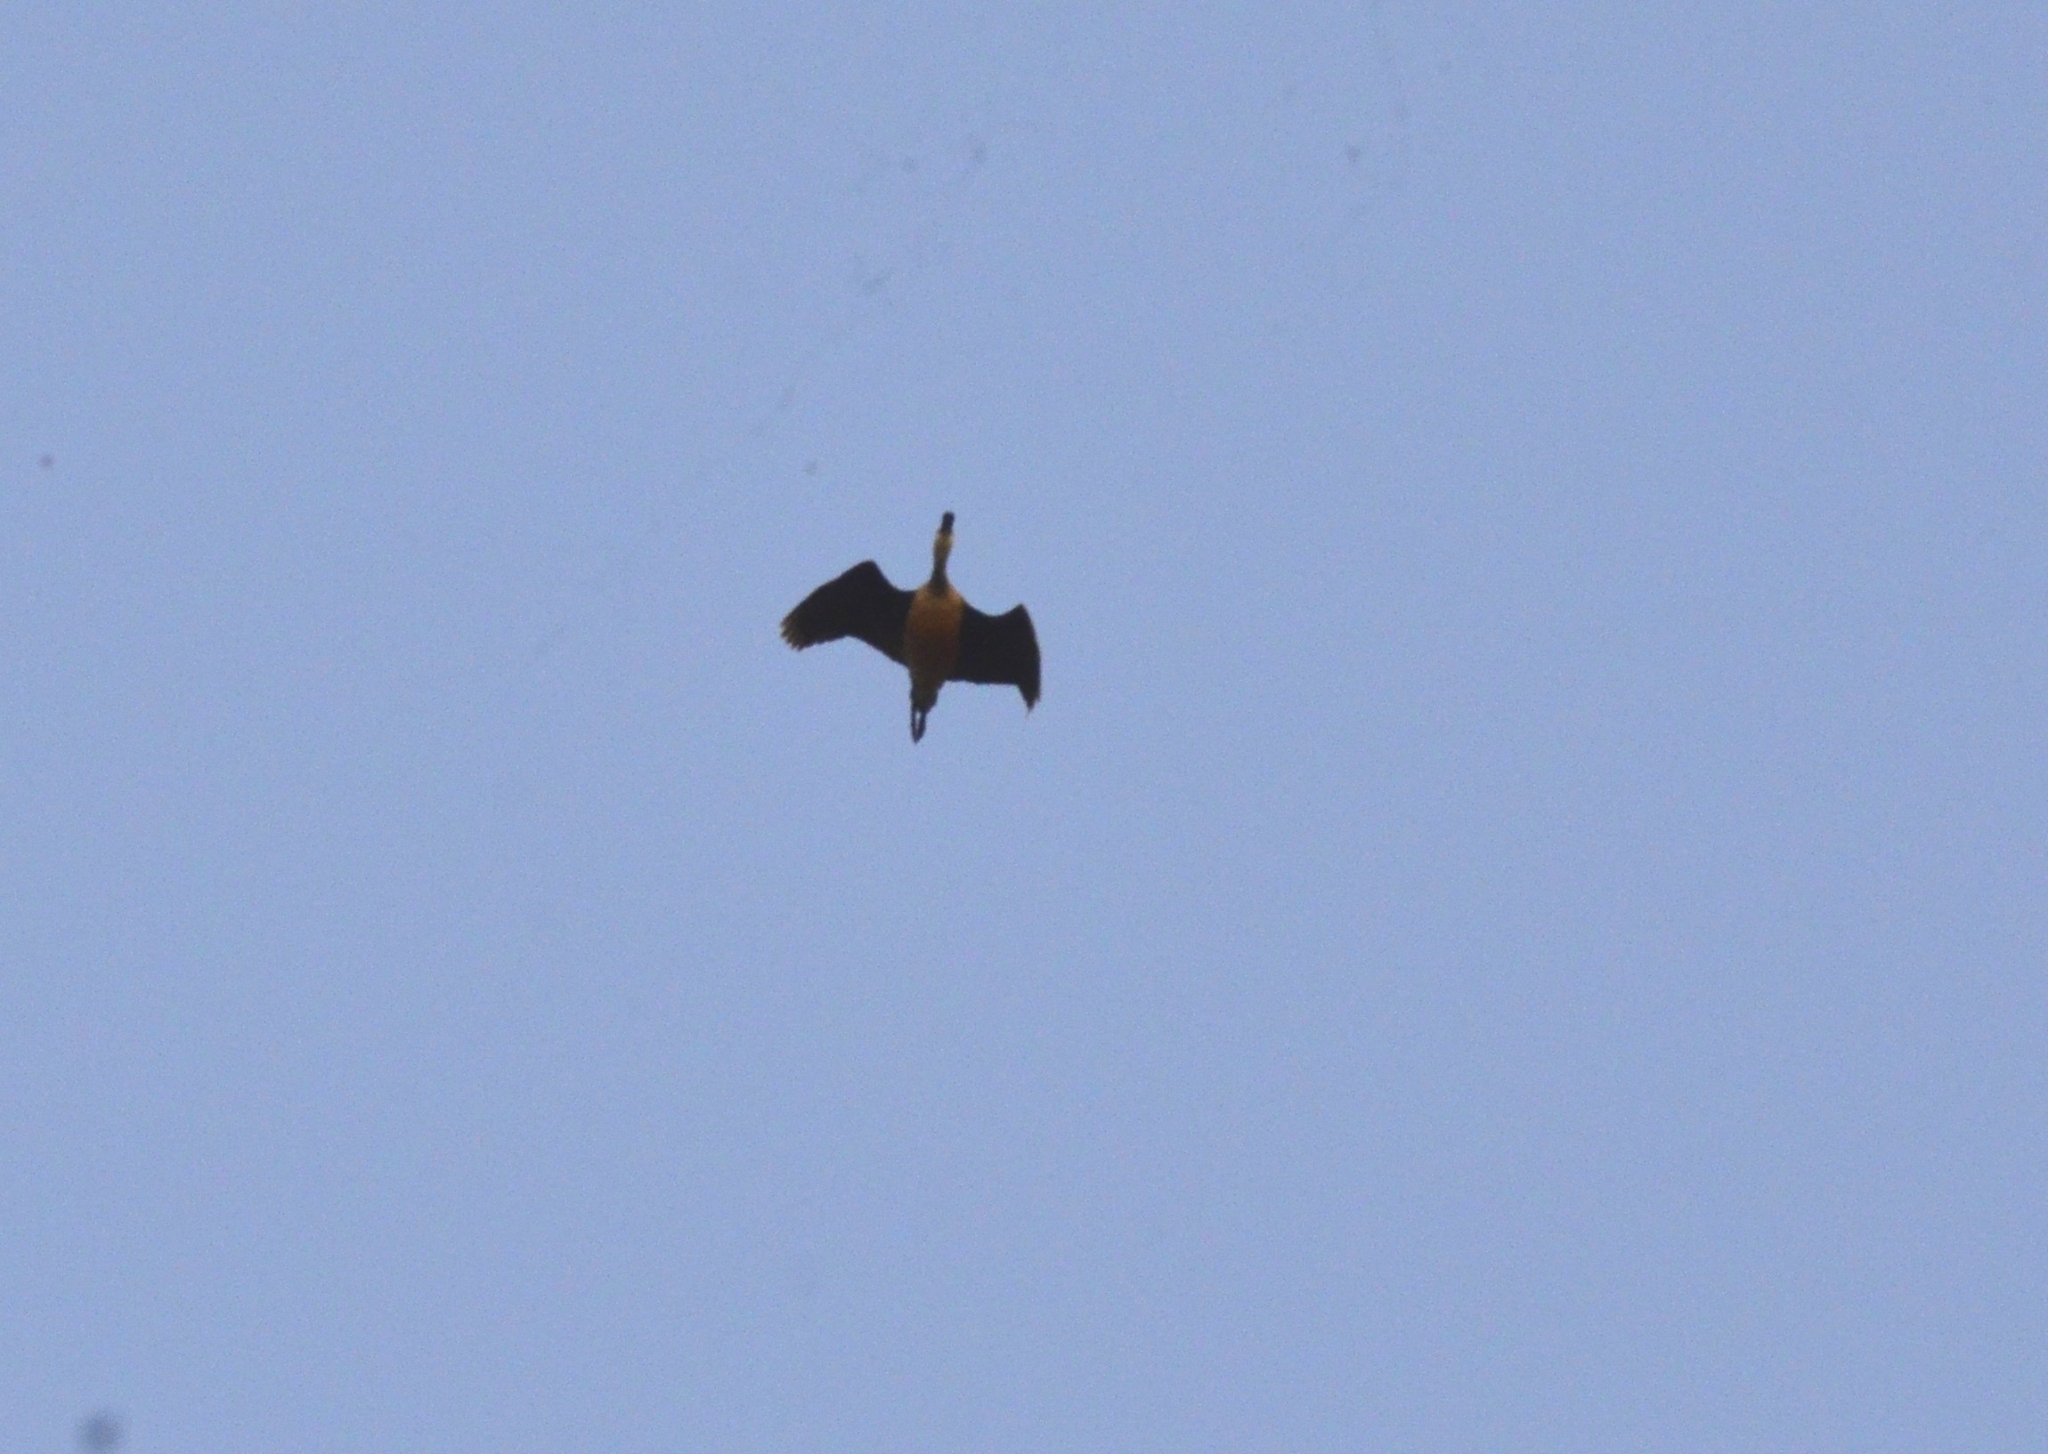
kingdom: Animalia
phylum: Chordata
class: Aves
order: Anseriformes
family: Anatidae
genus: Dendrocygna
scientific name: Dendrocygna javanica
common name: Lesser whistling-duck
